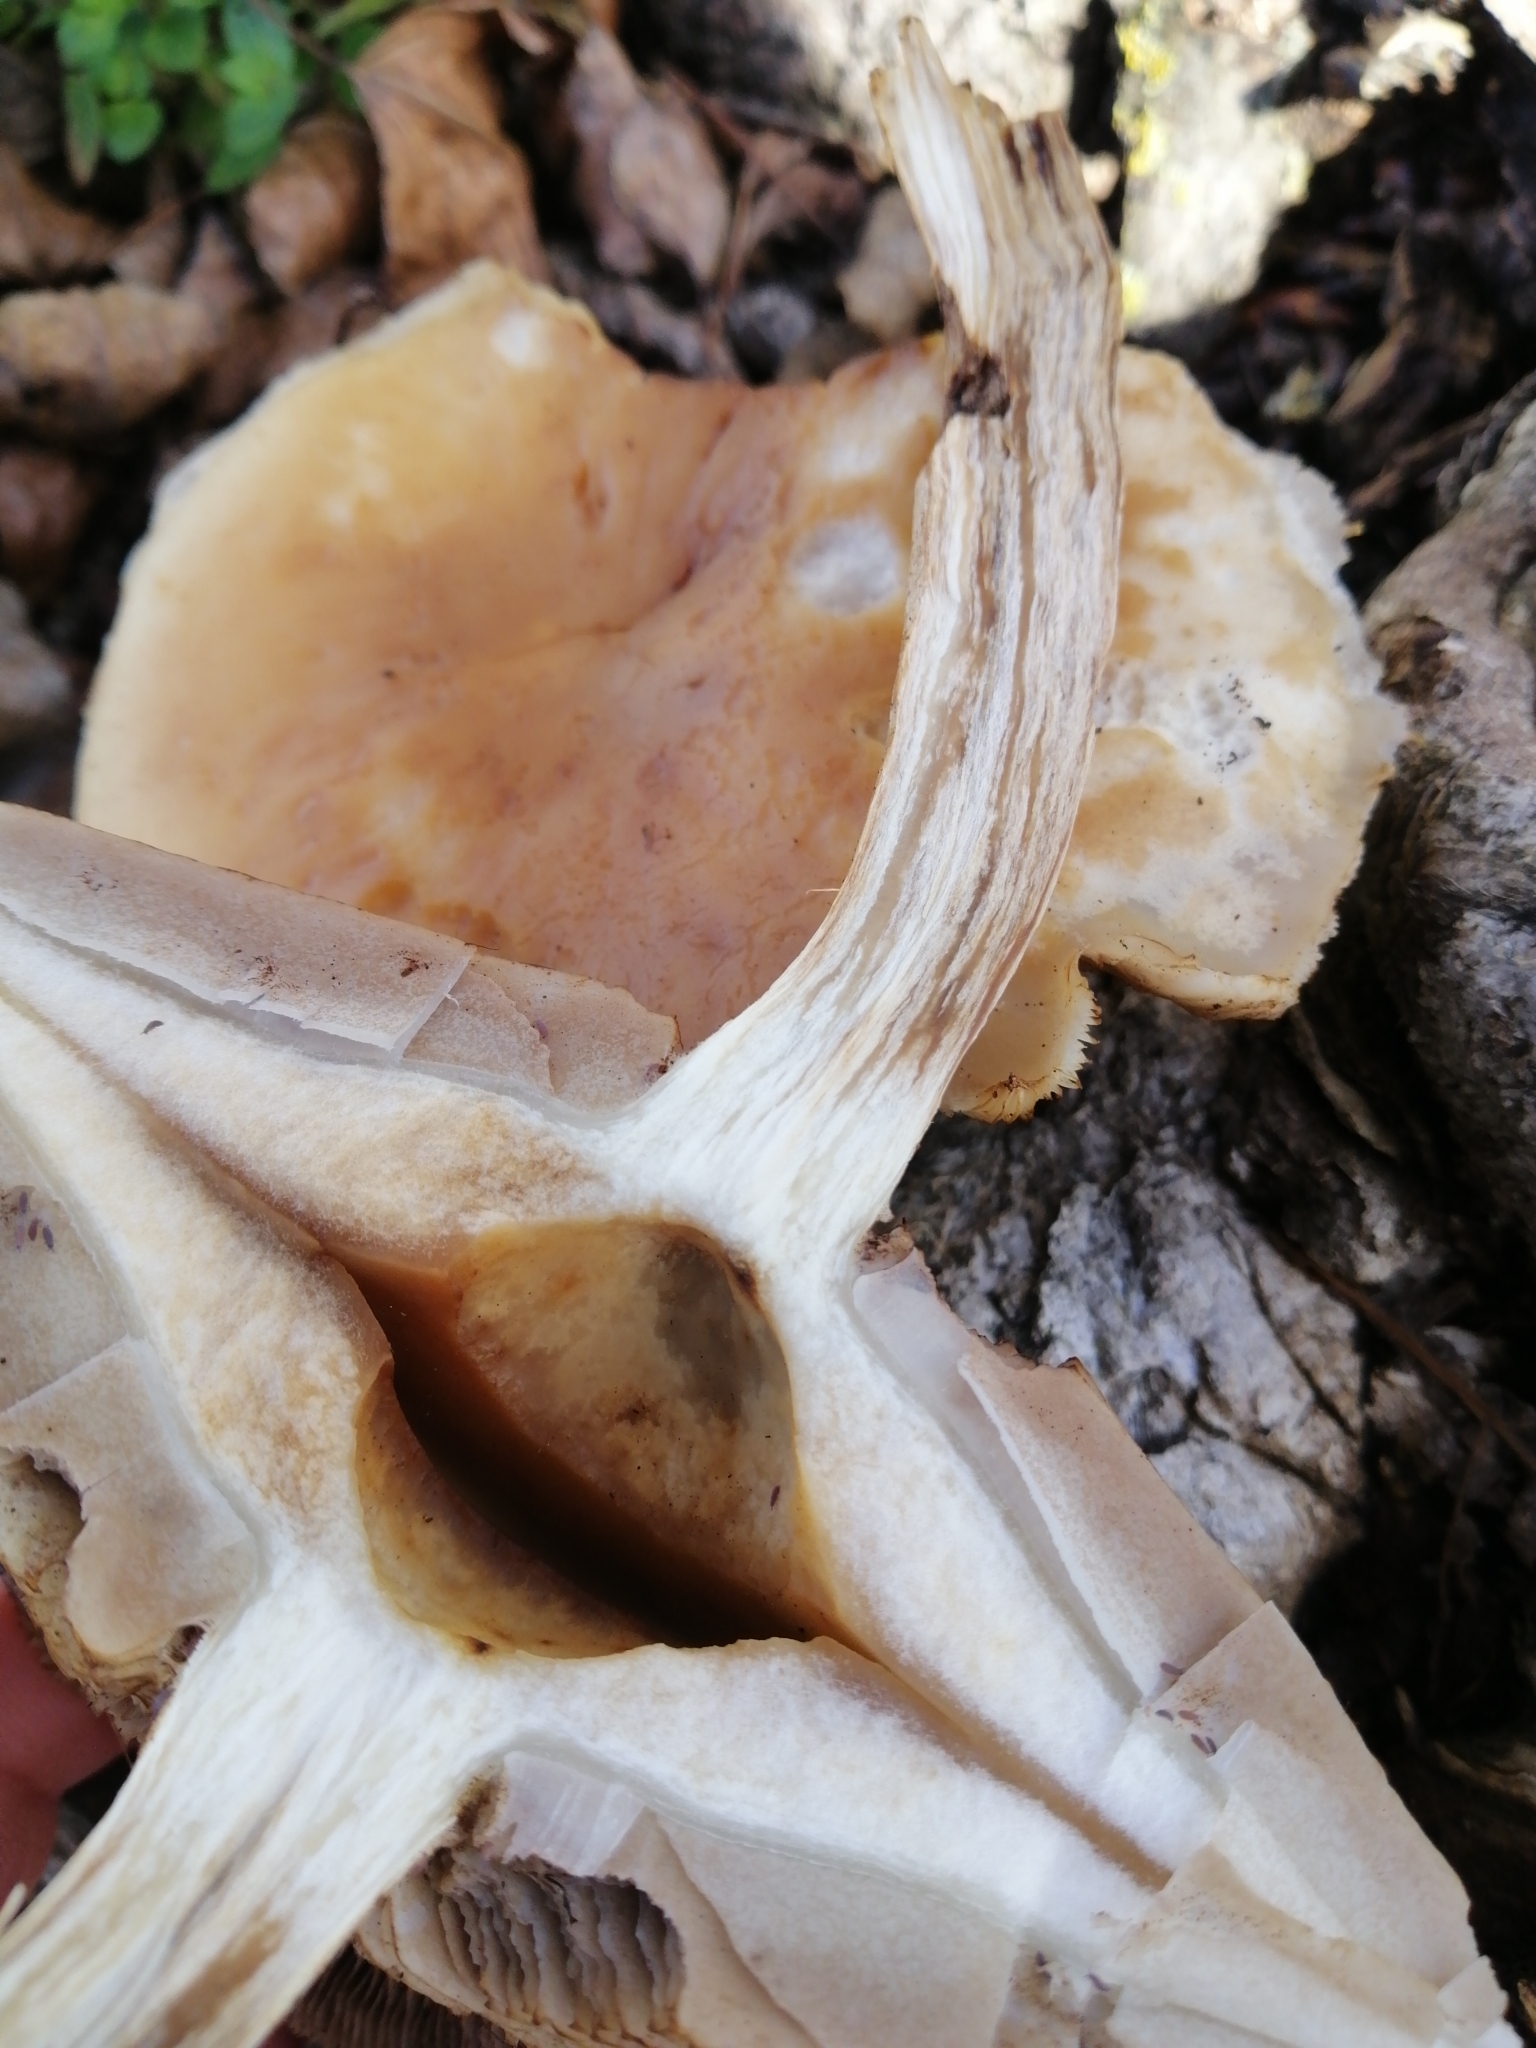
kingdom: Fungi
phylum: Basidiomycota
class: Agaricomycetes
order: Agaricales
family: Tubariaceae
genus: Cyclocybe
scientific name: Cyclocybe parasitica
